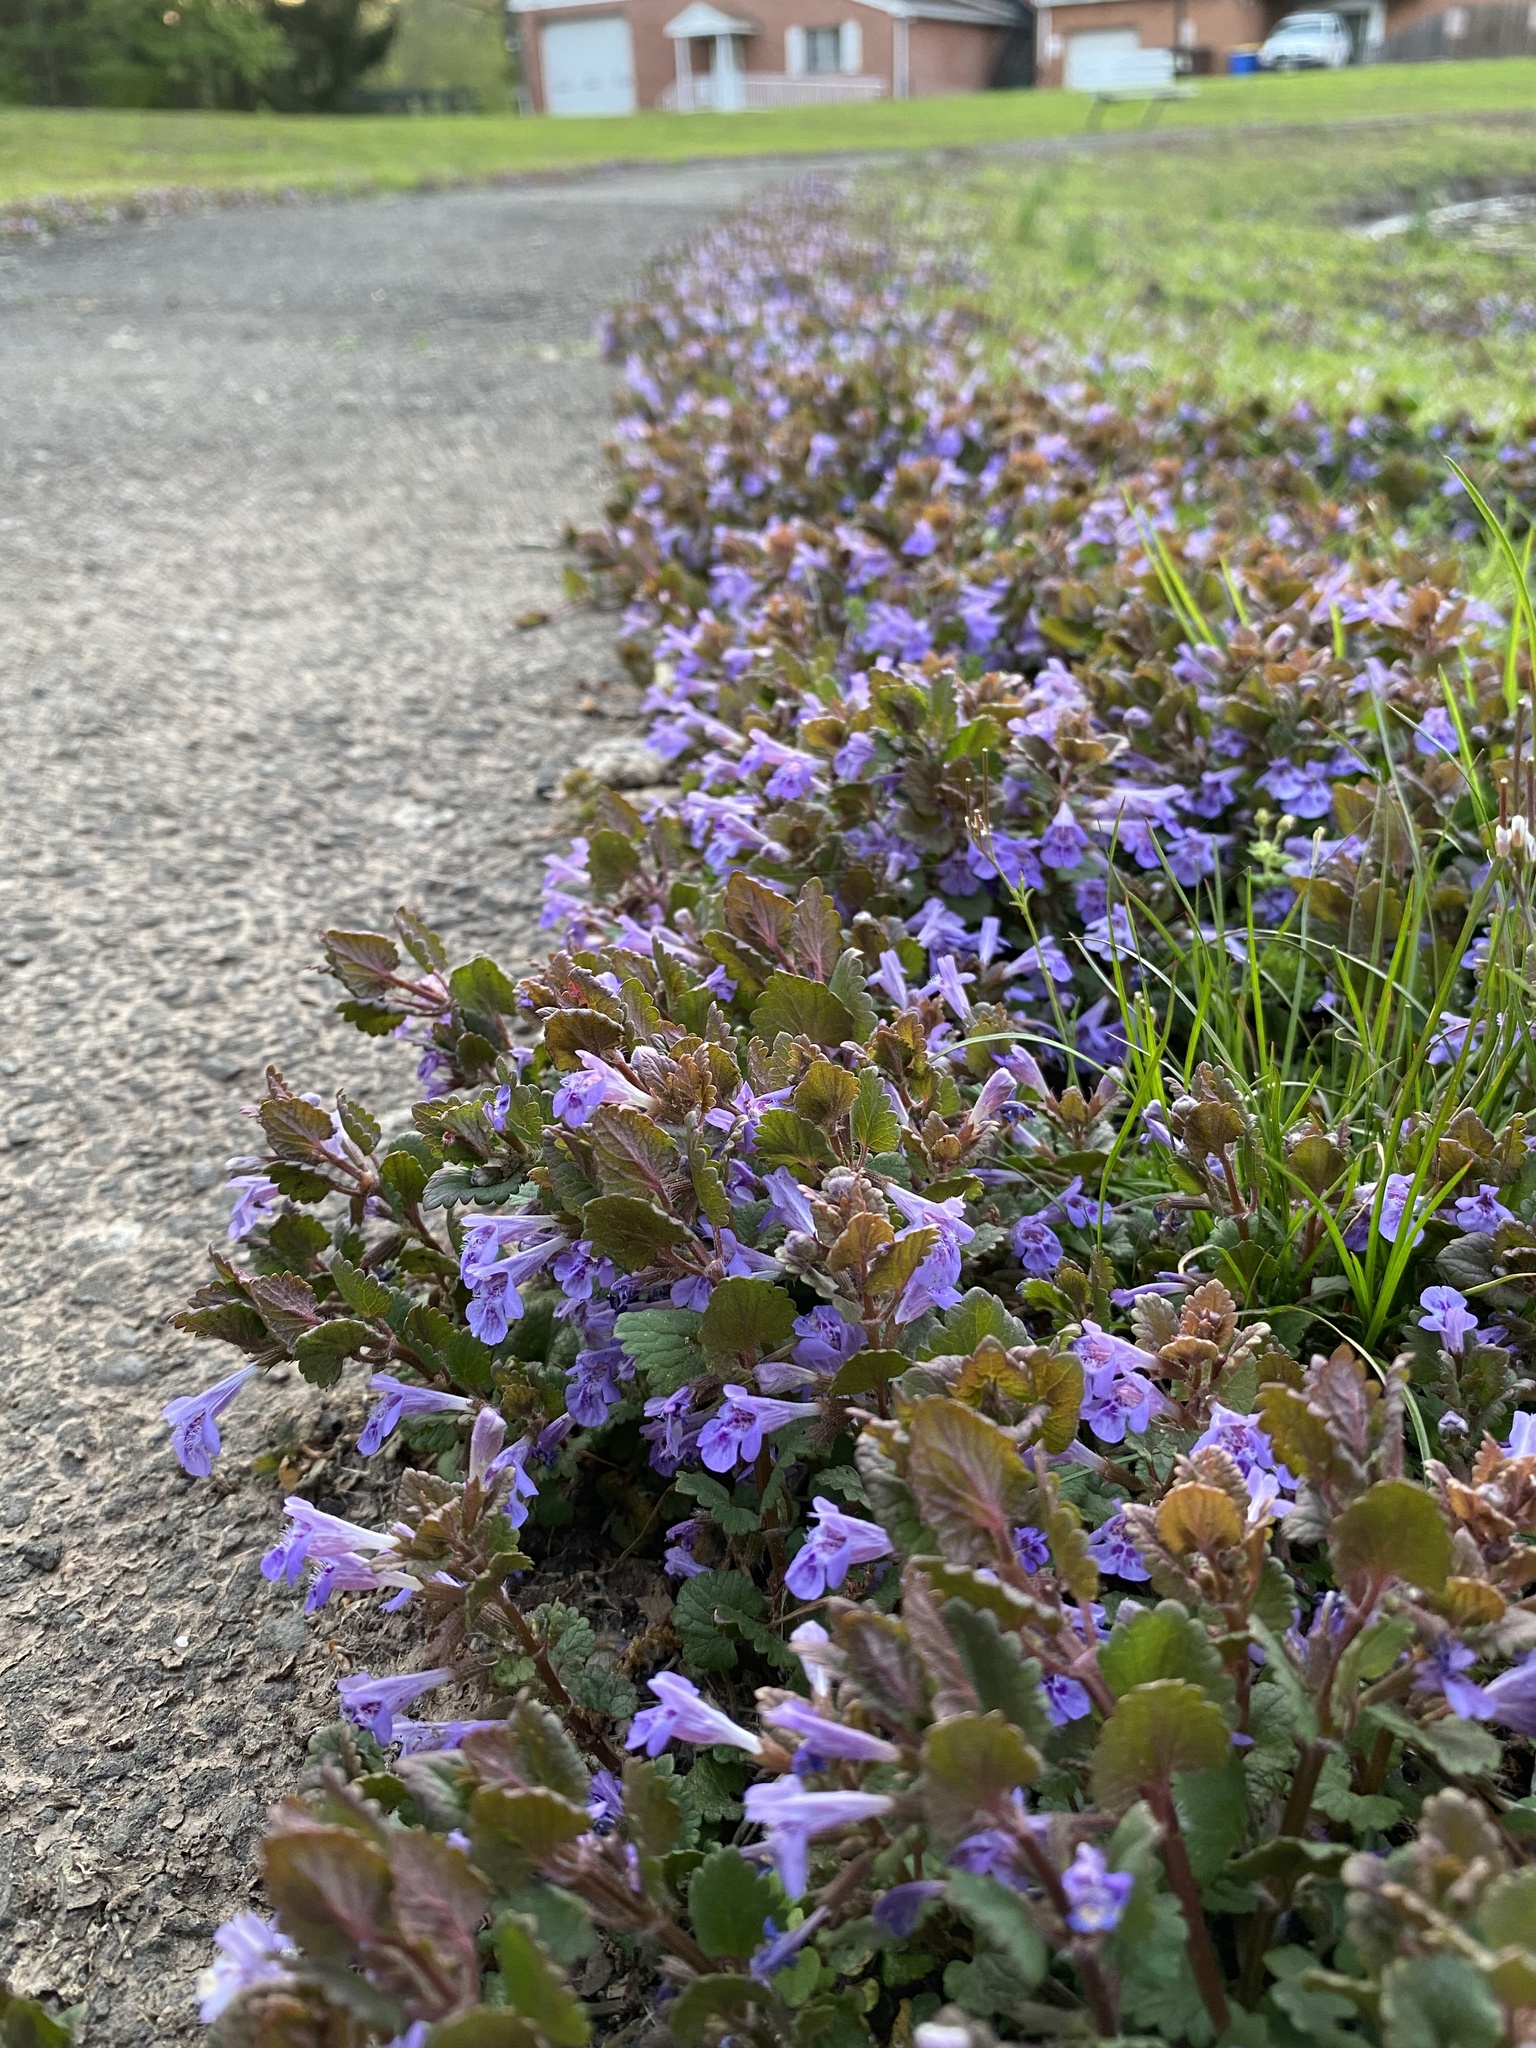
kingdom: Plantae
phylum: Tracheophyta
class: Magnoliopsida
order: Lamiales
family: Lamiaceae
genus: Glechoma
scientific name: Glechoma hederacea
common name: Ground ivy
